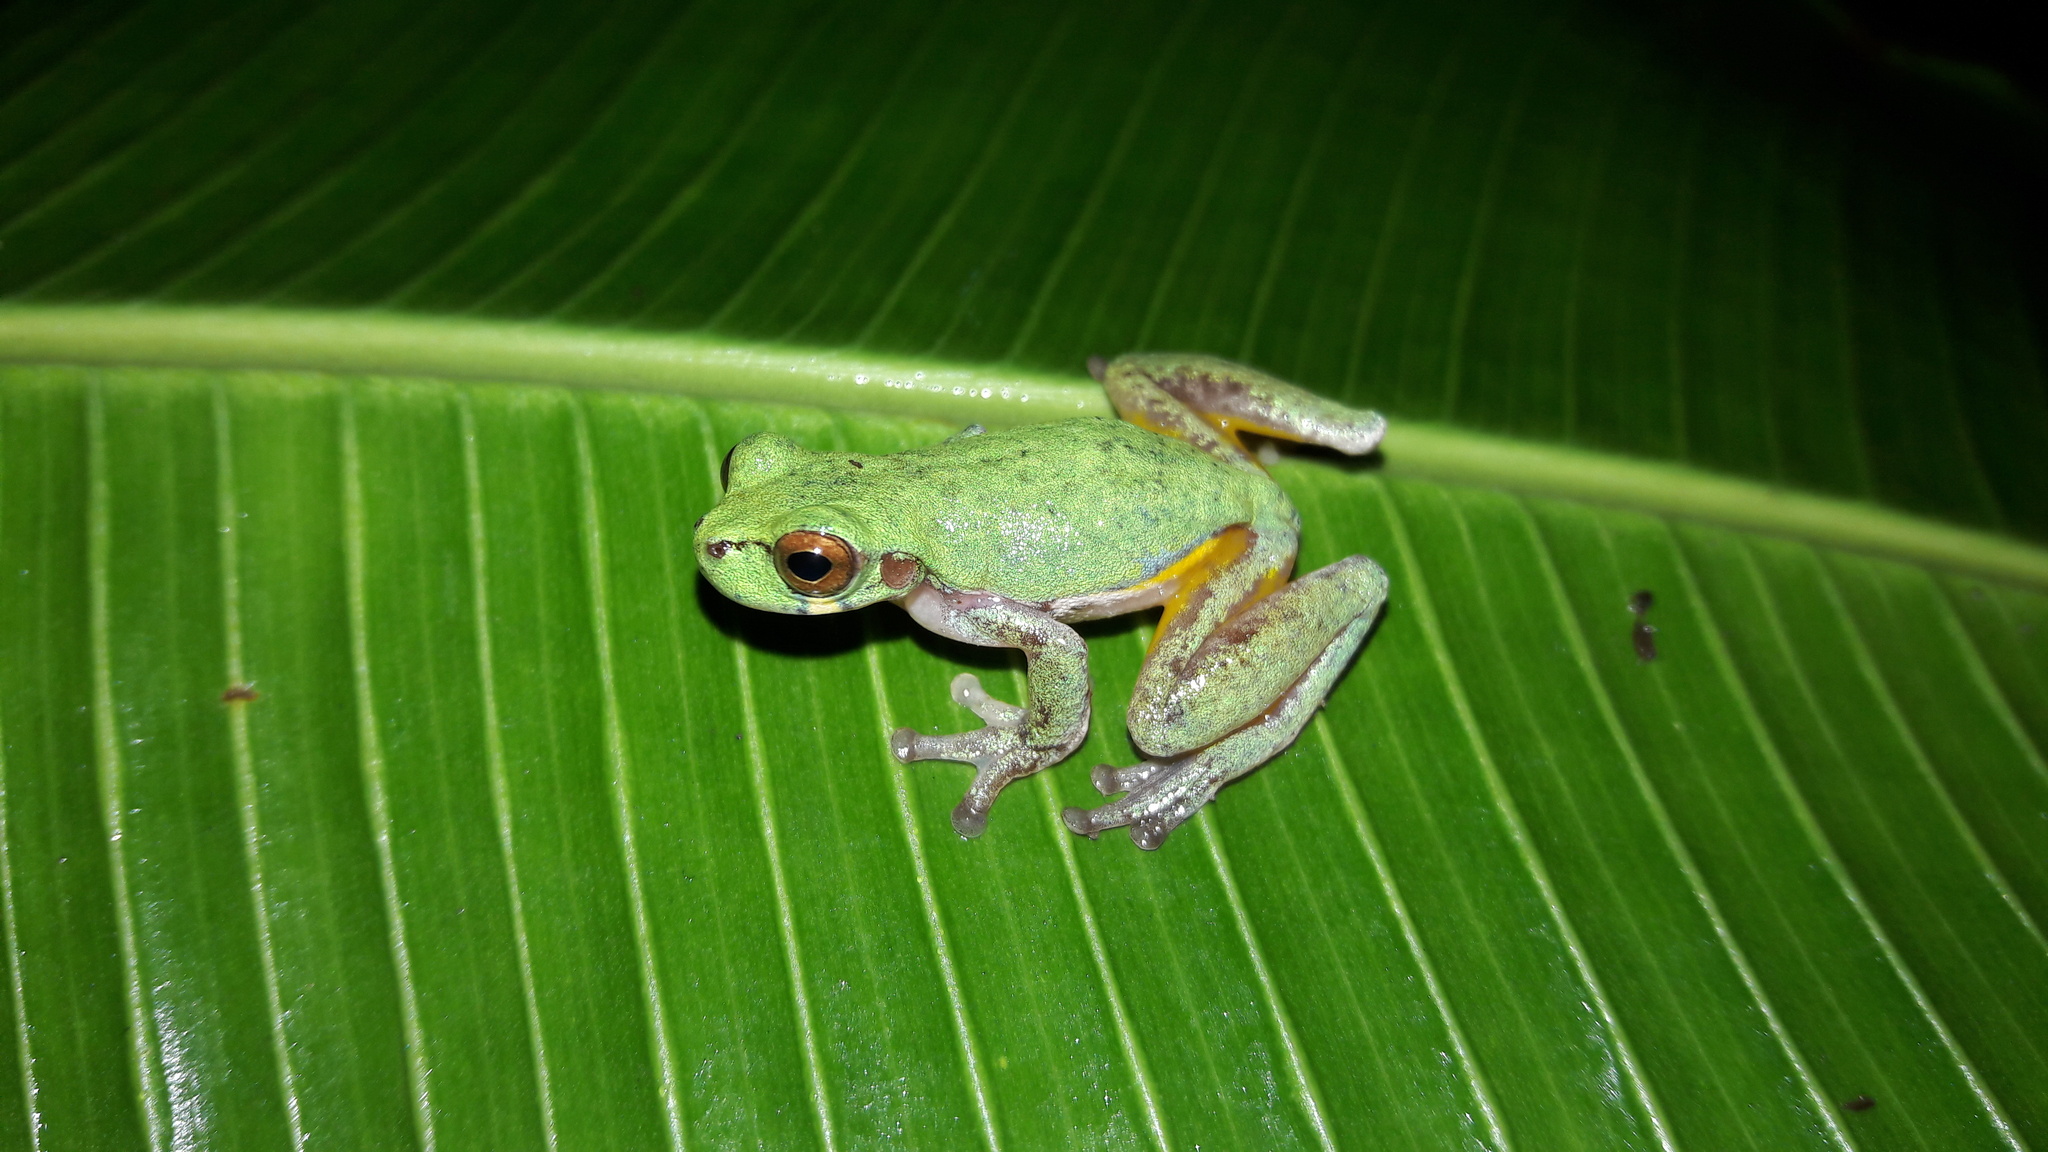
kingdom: Animalia
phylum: Chordata
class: Amphibia
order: Anura
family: Hylidae
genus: Isthmohyla
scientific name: Isthmohyla debilis
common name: Isla bonita treefrog
